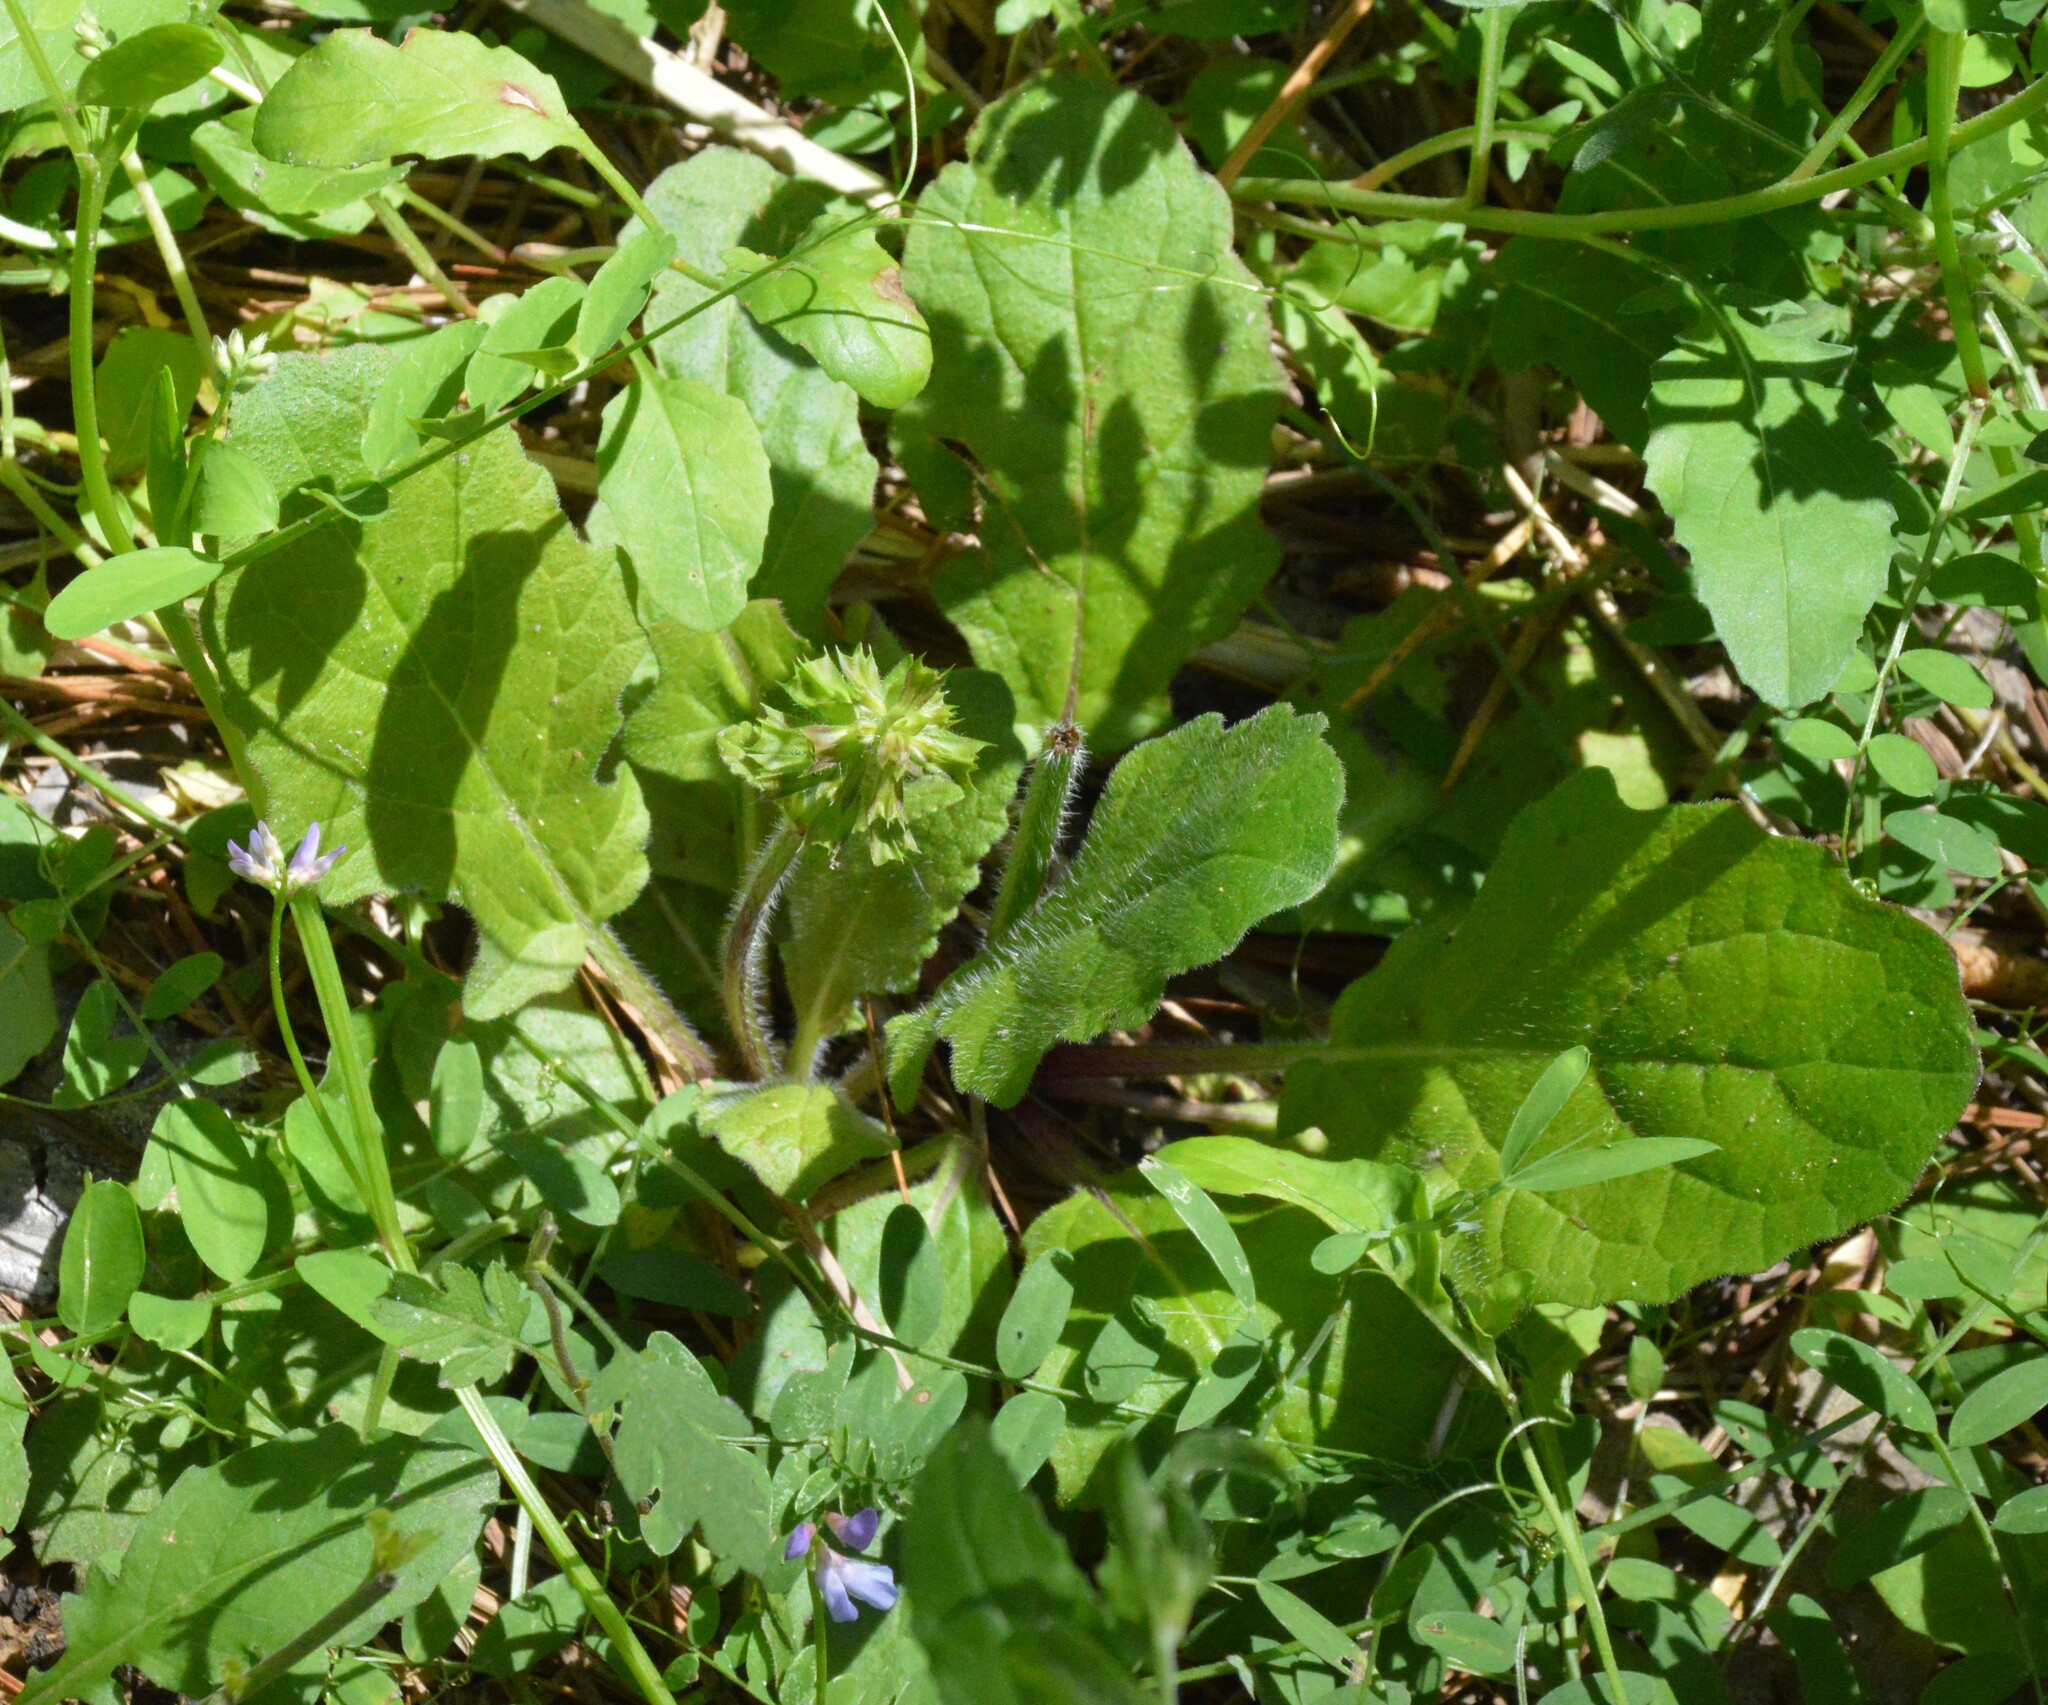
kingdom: Plantae
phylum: Tracheophyta
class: Magnoliopsida
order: Lamiales
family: Lamiaceae
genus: Salvia
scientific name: Salvia lyrata
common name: Cancerweed
